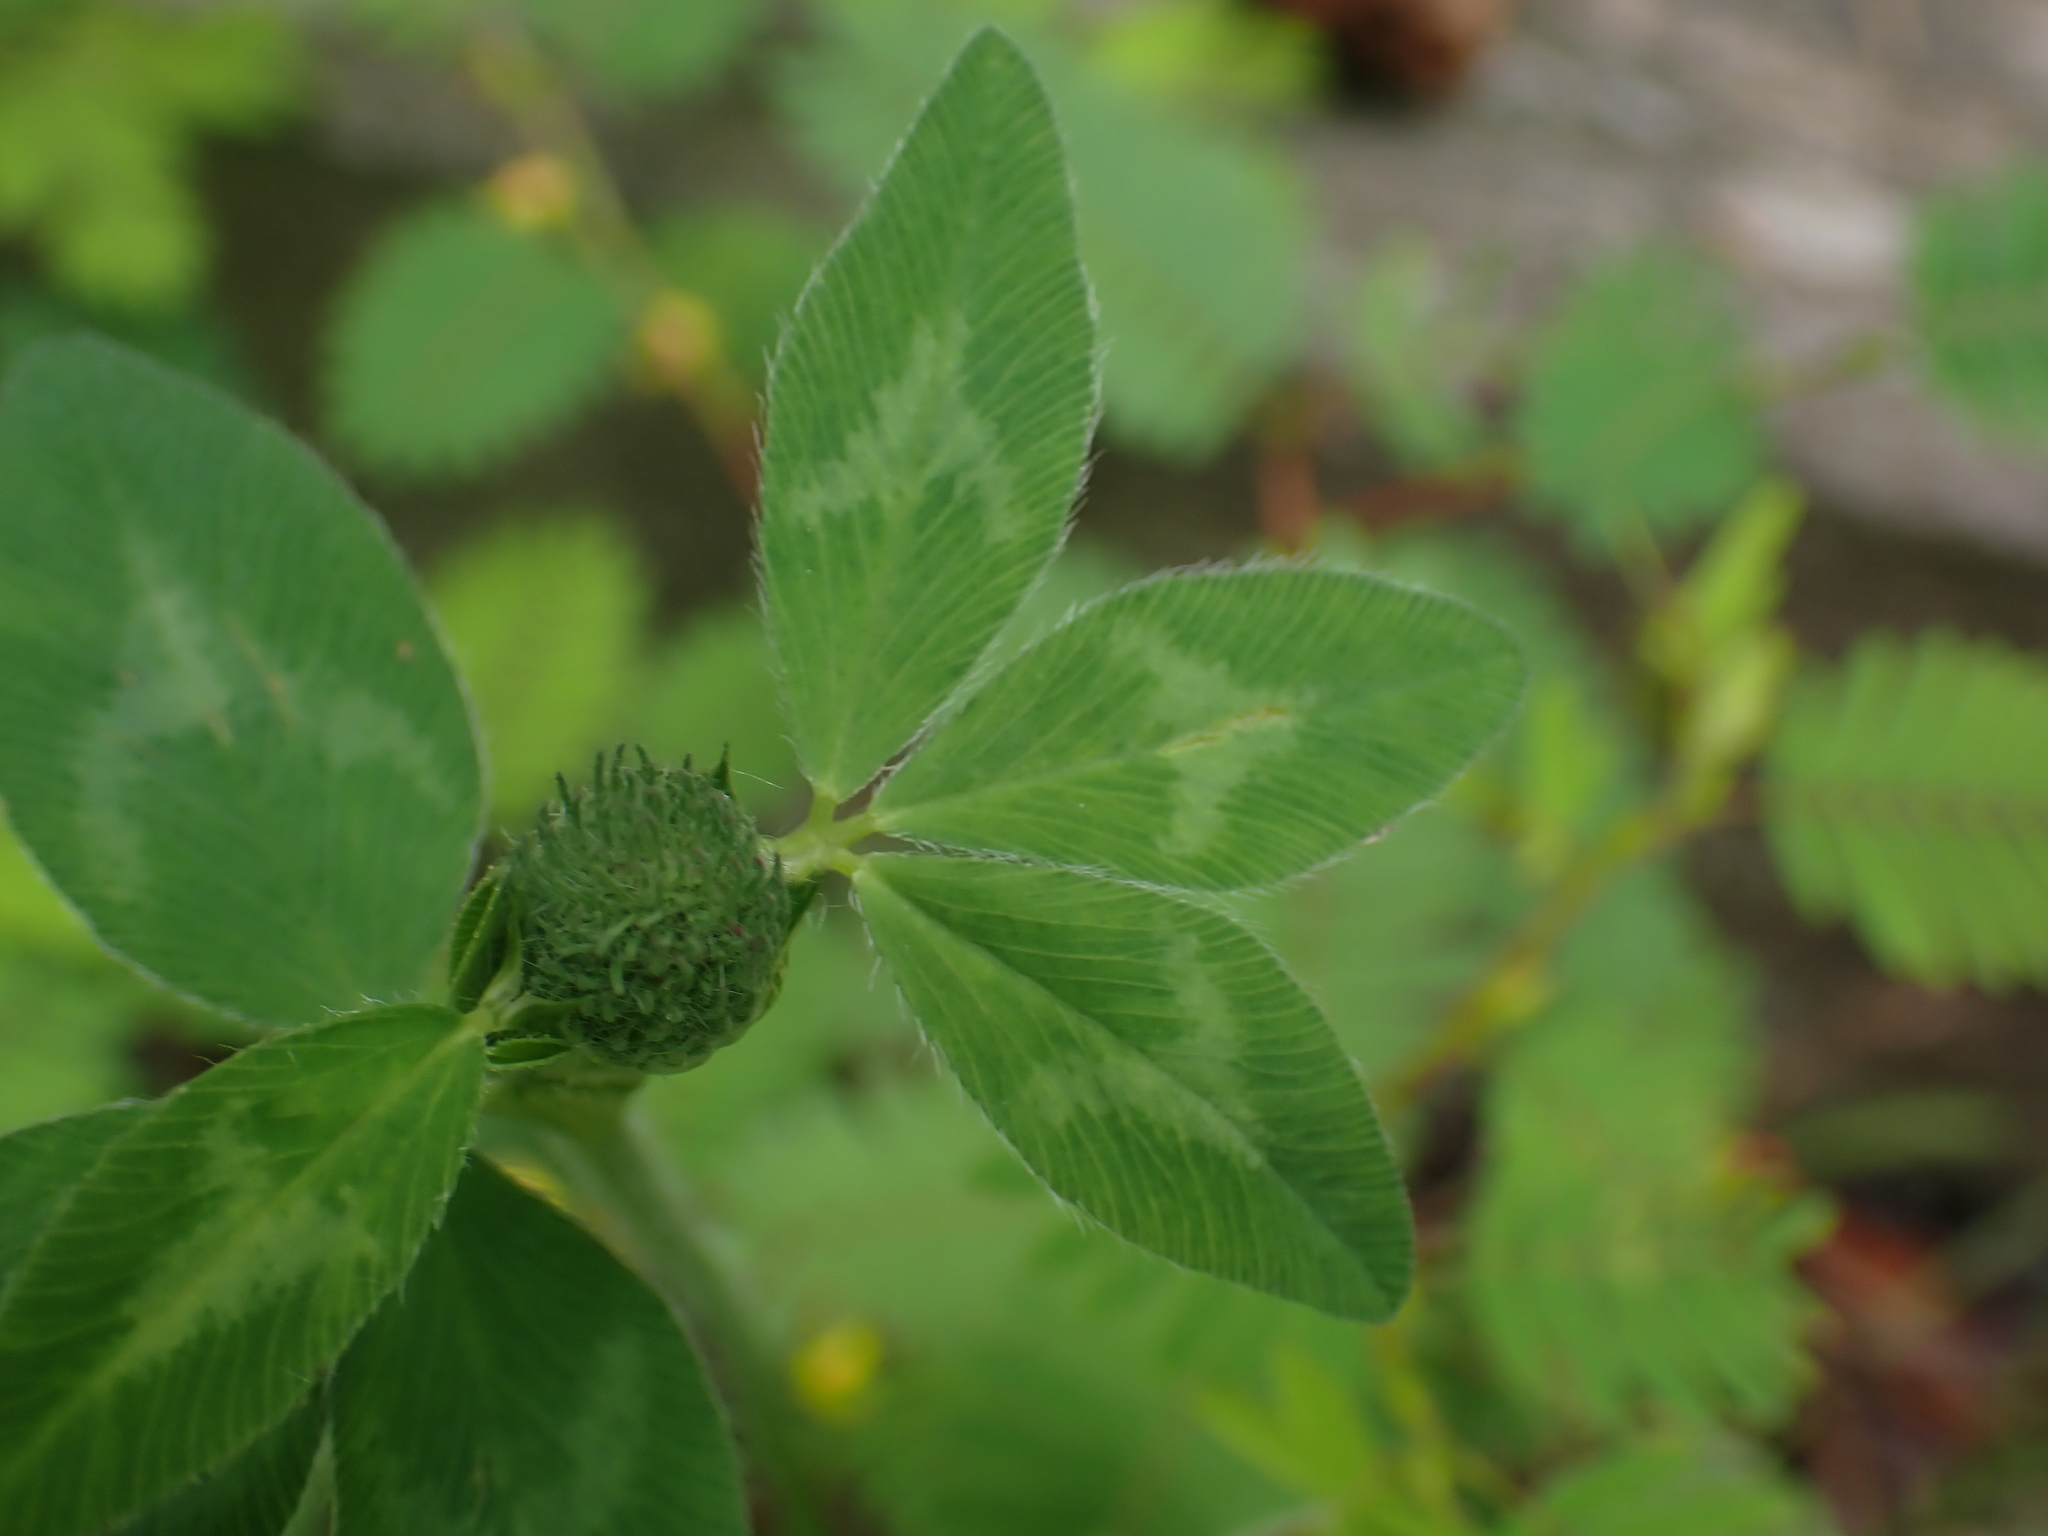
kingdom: Plantae
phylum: Tracheophyta
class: Magnoliopsida
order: Fabales
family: Fabaceae
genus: Trifolium
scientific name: Trifolium pratense
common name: Red clover
